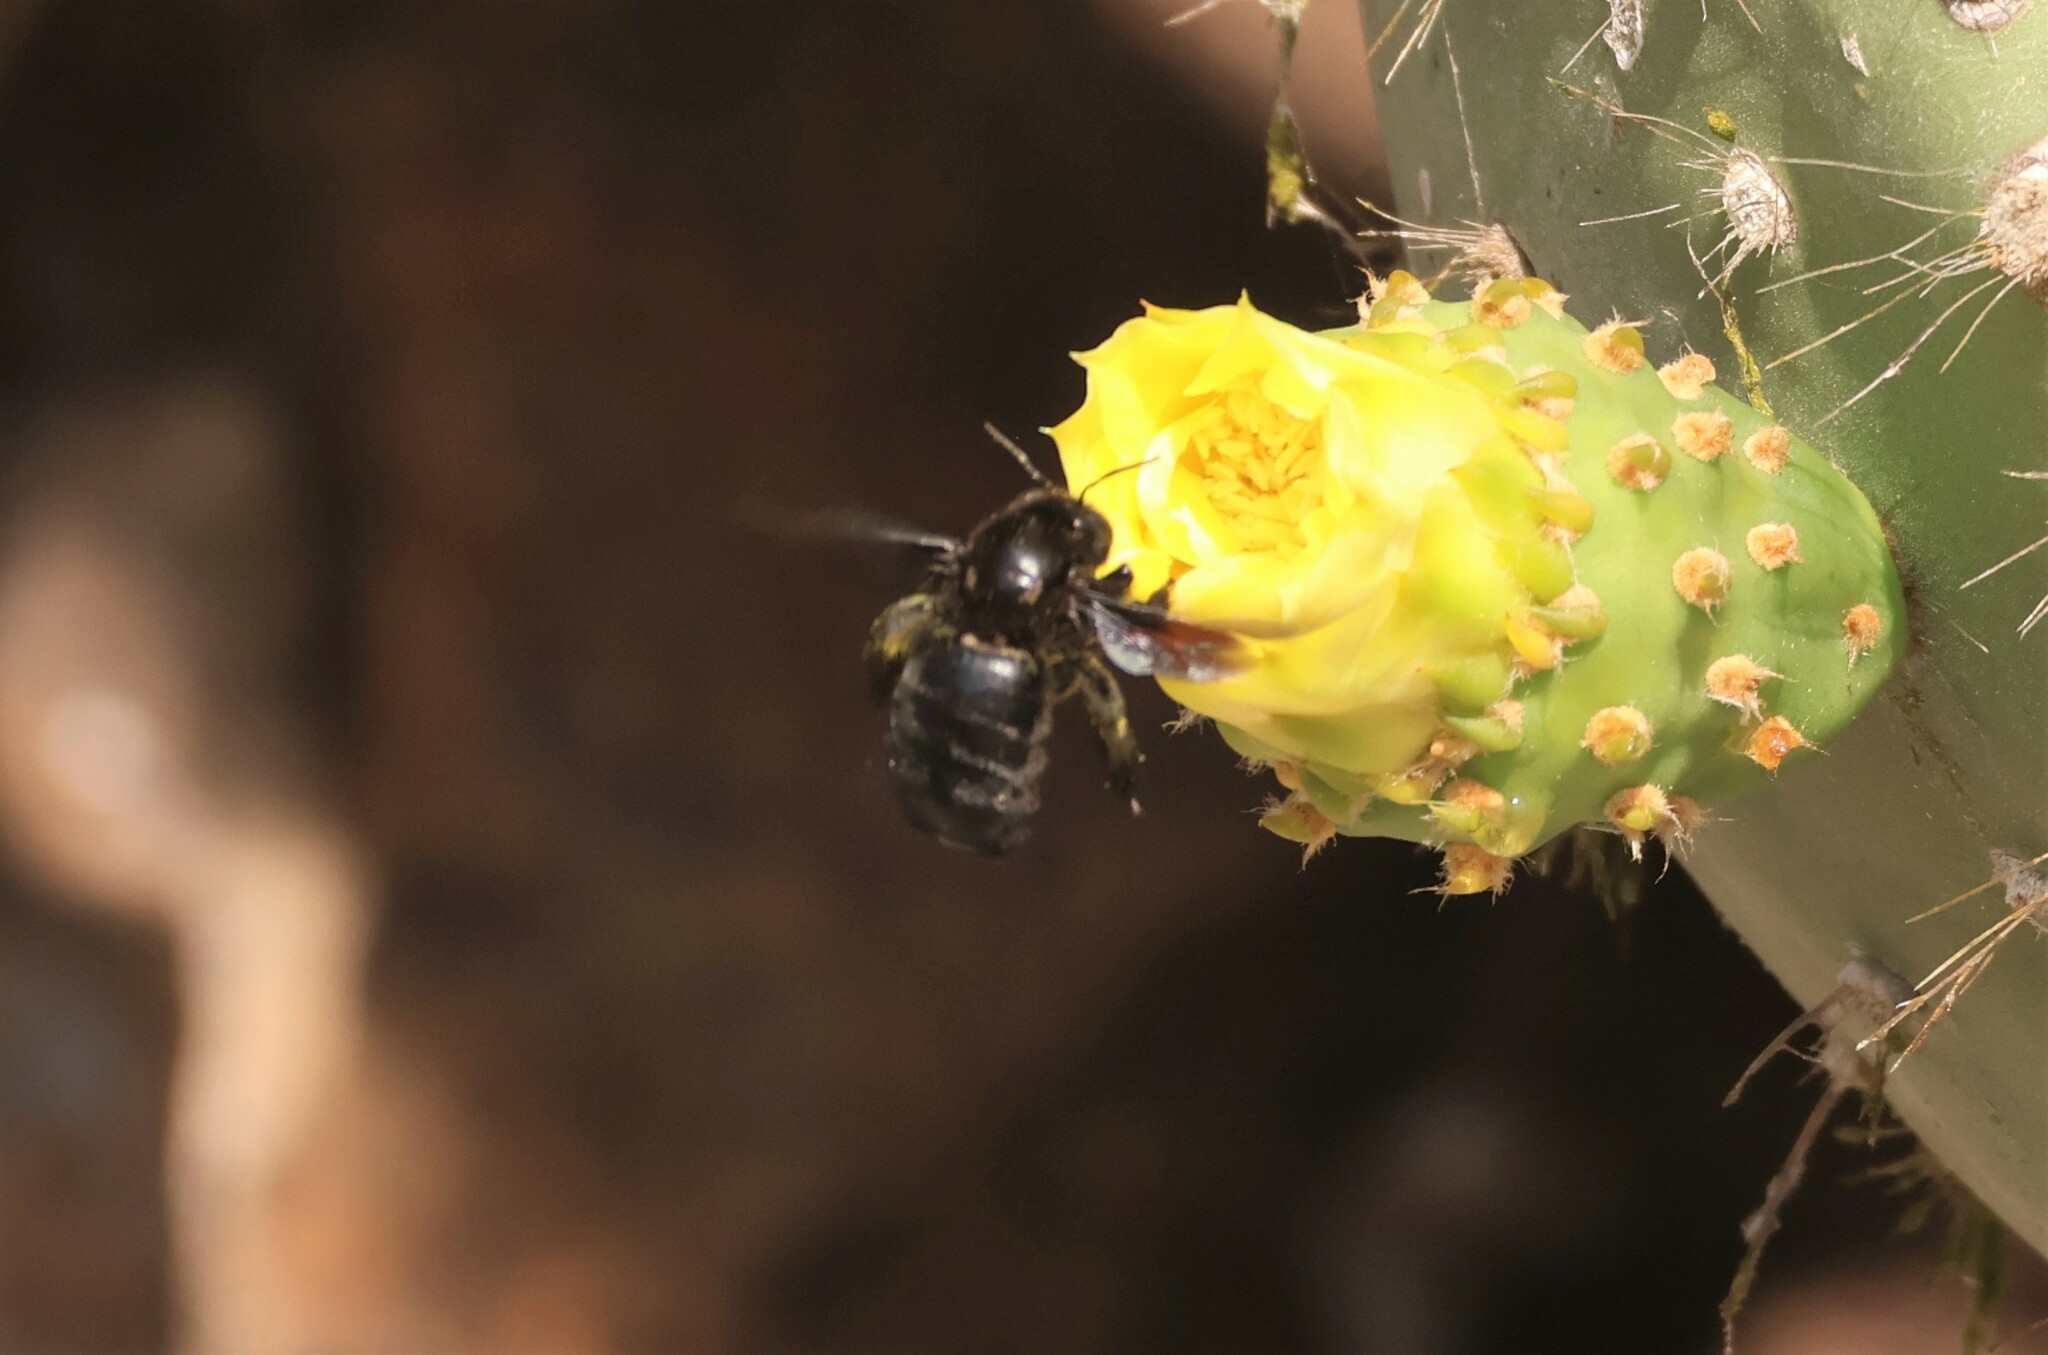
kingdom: Animalia
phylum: Arthropoda
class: Insecta
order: Hymenoptera
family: Apidae
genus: Xylocopa
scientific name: Xylocopa darwini
